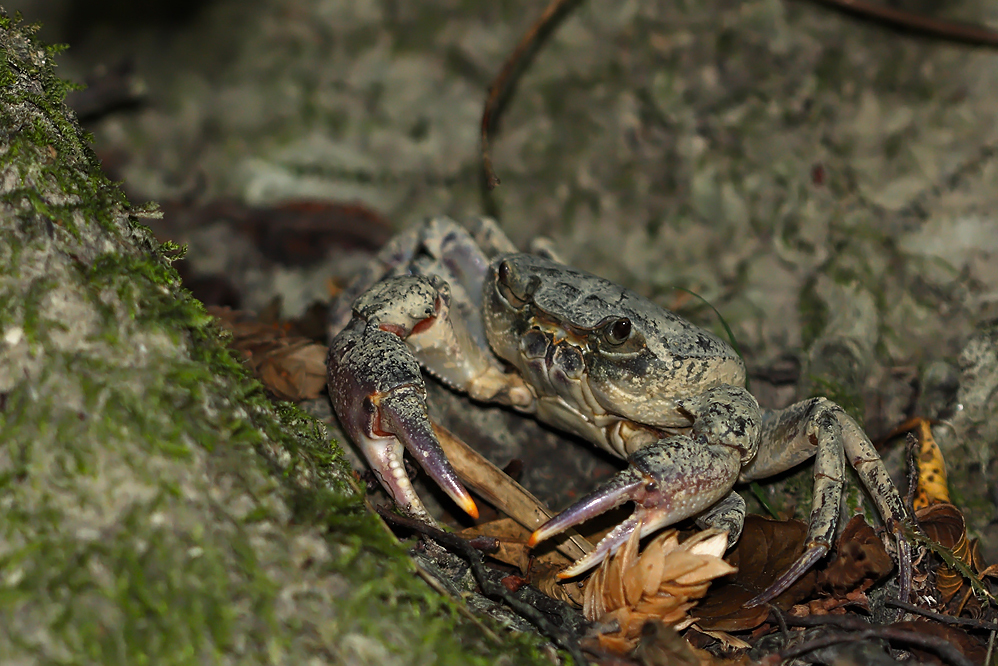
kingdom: Animalia
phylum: Arthropoda
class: Malacostraca
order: Decapoda
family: Potamidae
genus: Potamon
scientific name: Potamon fluviatile
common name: Italian freshwater crab
